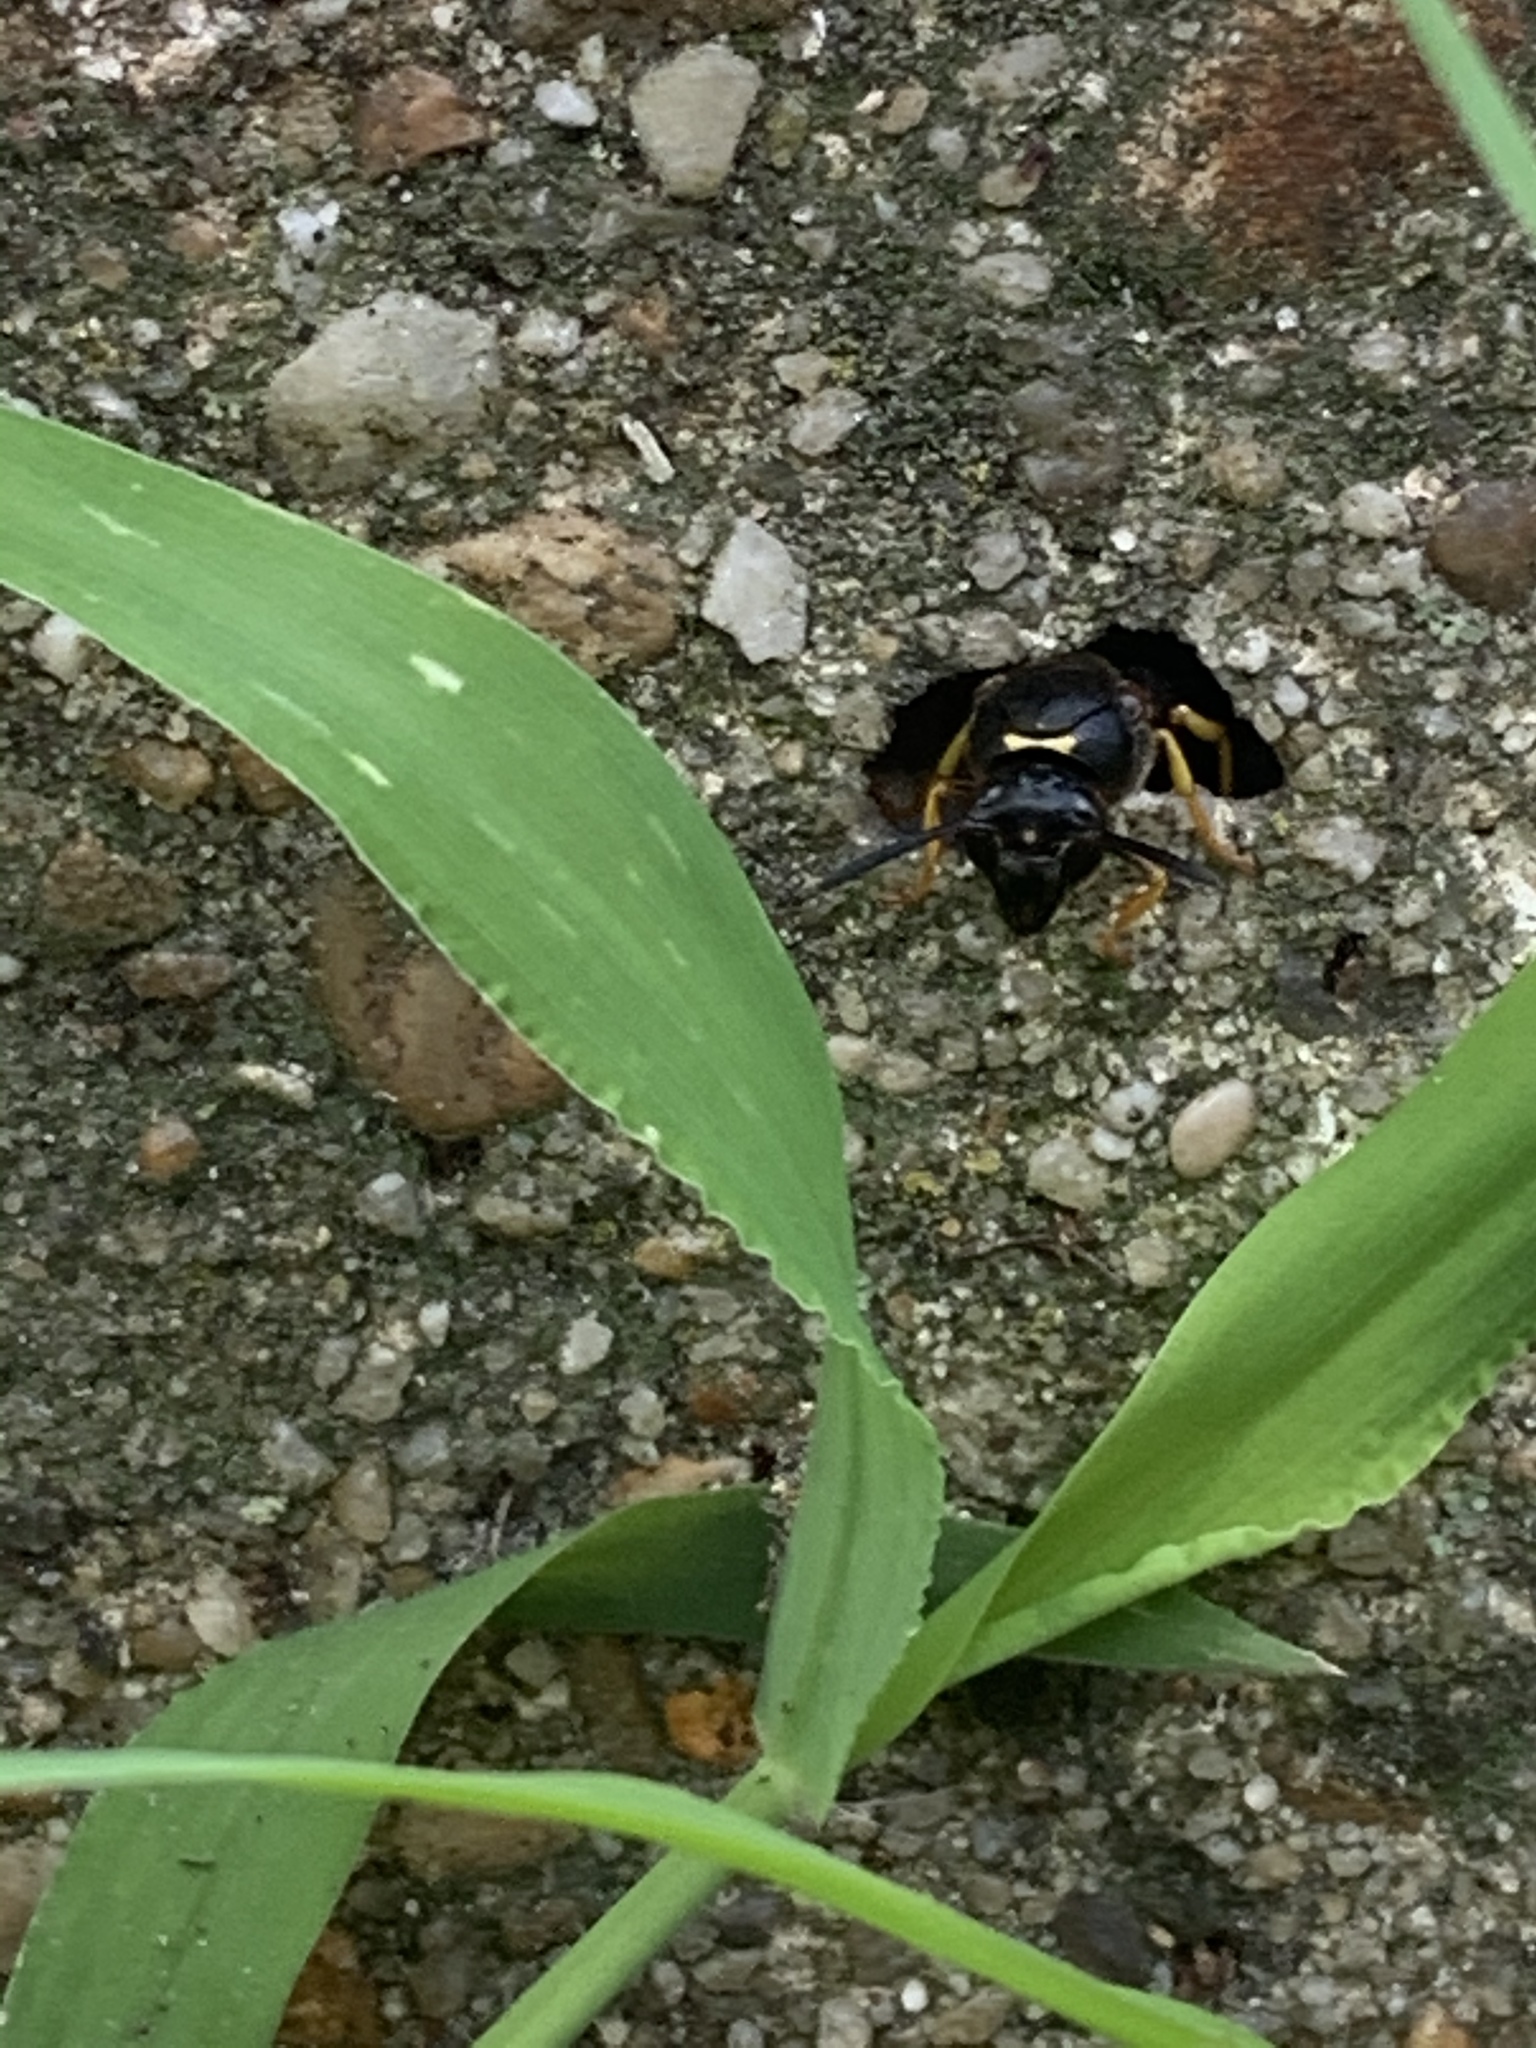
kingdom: Animalia
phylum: Arthropoda
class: Insecta
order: Hymenoptera
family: Eumenidae
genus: Parazumia
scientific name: Parazumia symmorpha
